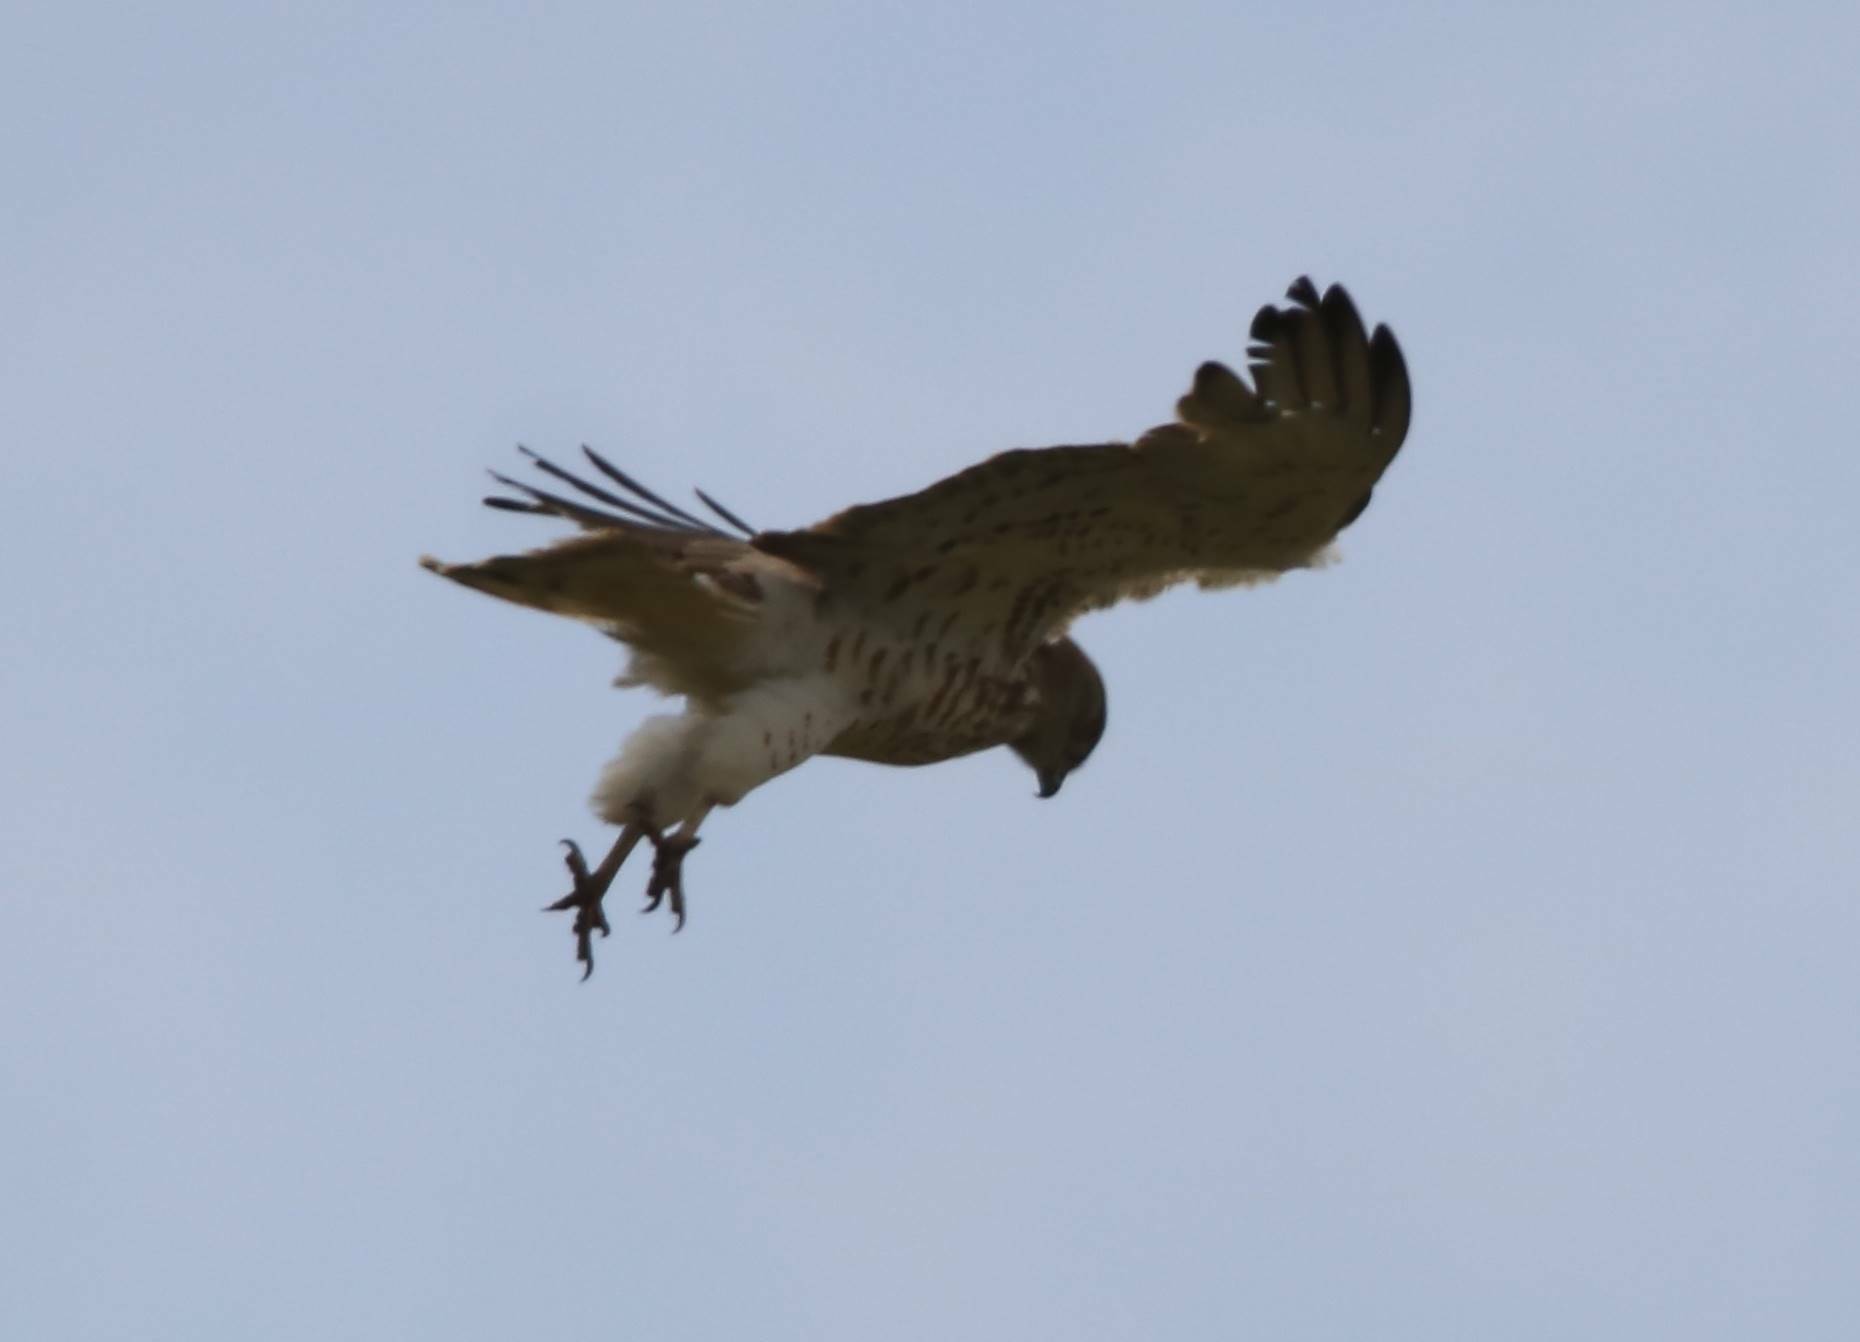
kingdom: Animalia
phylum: Chordata
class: Aves
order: Accipitriformes
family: Accipitridae
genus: Circaetus
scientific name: Circaetus gallicus
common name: Short-toed snake eagle
